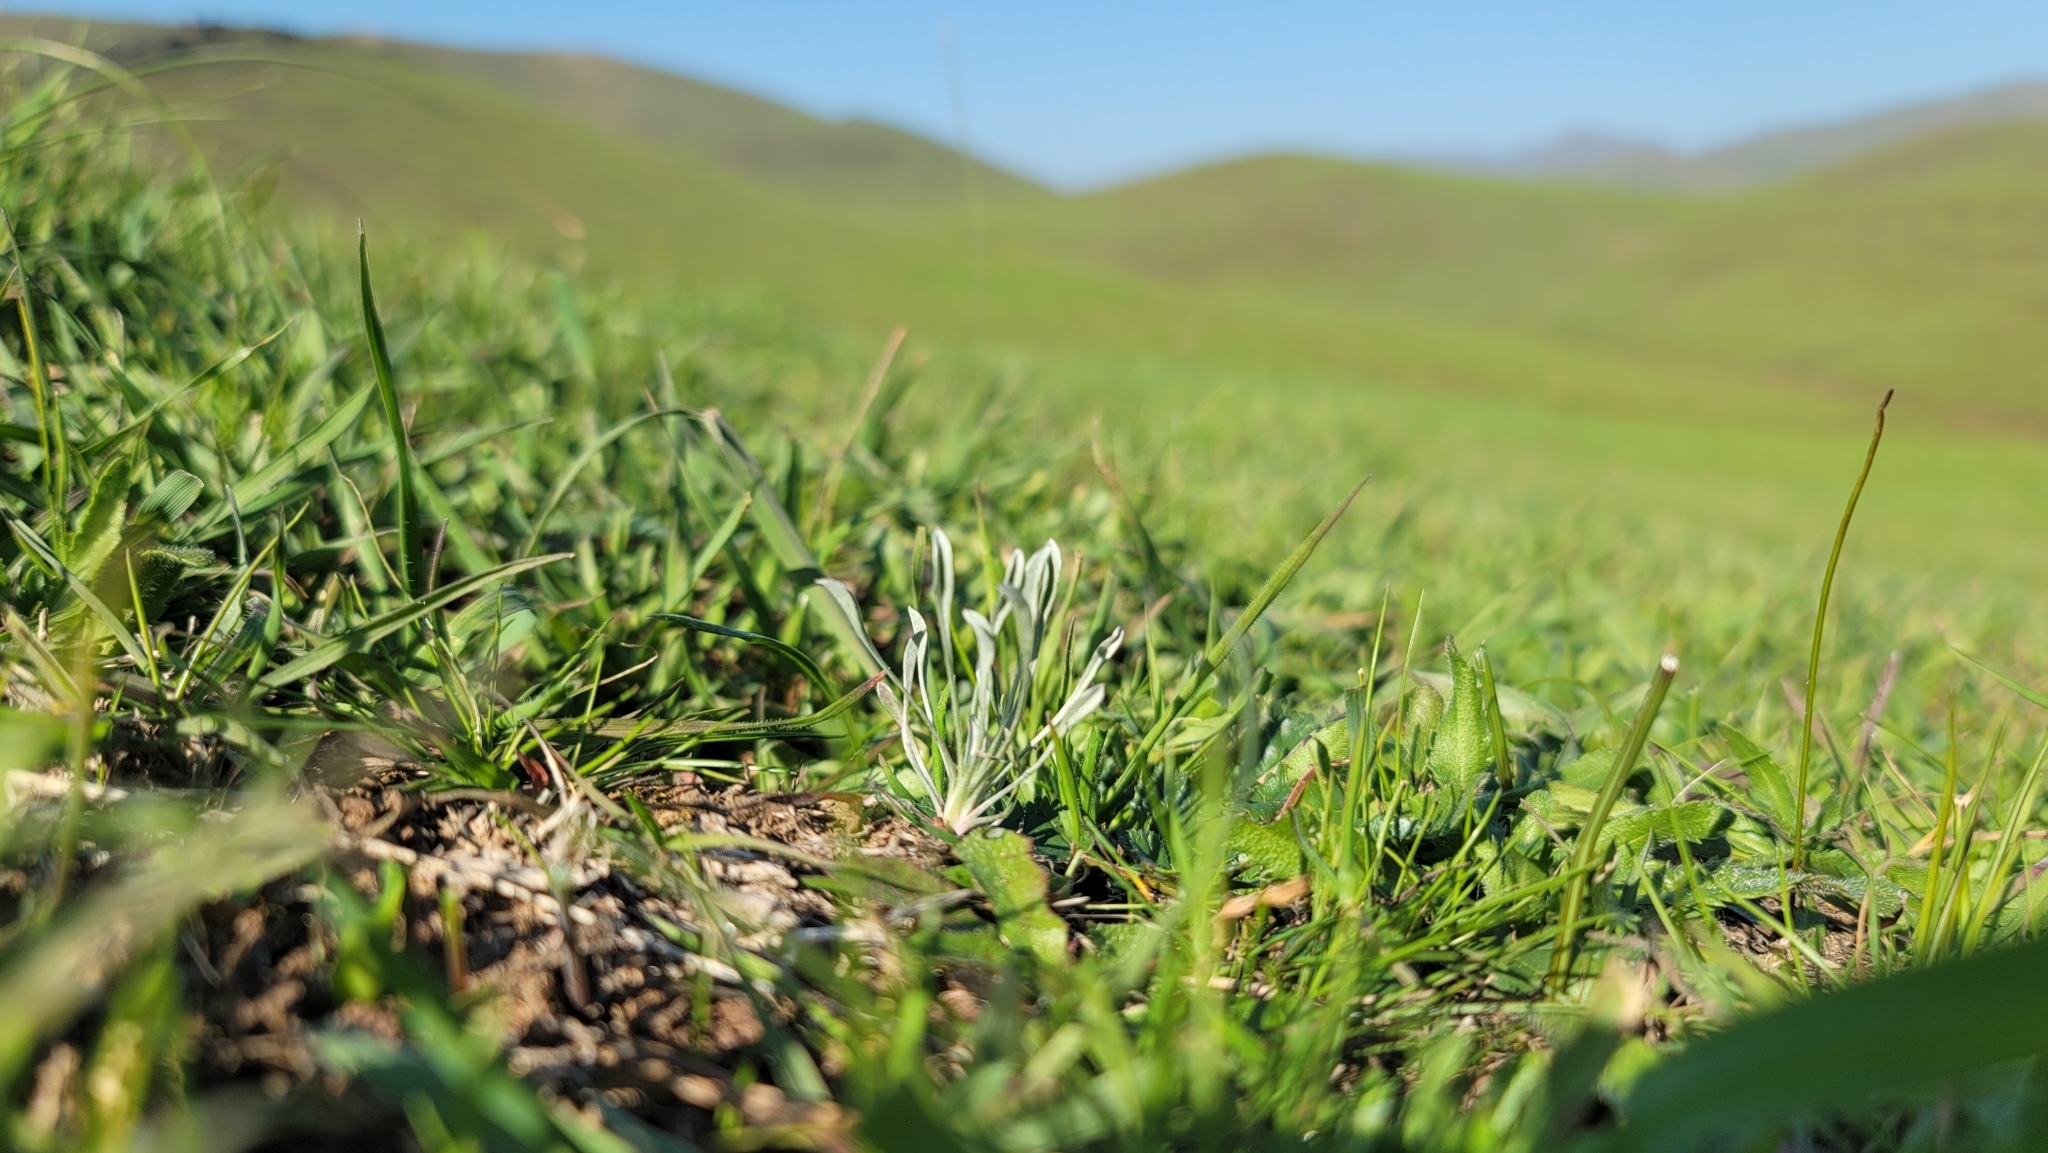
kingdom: Plantae
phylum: Tracheophyta
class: Magnoliopsida
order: Asterales
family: Asteraceae
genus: Hesperevax
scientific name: Hesperevax caulescens
